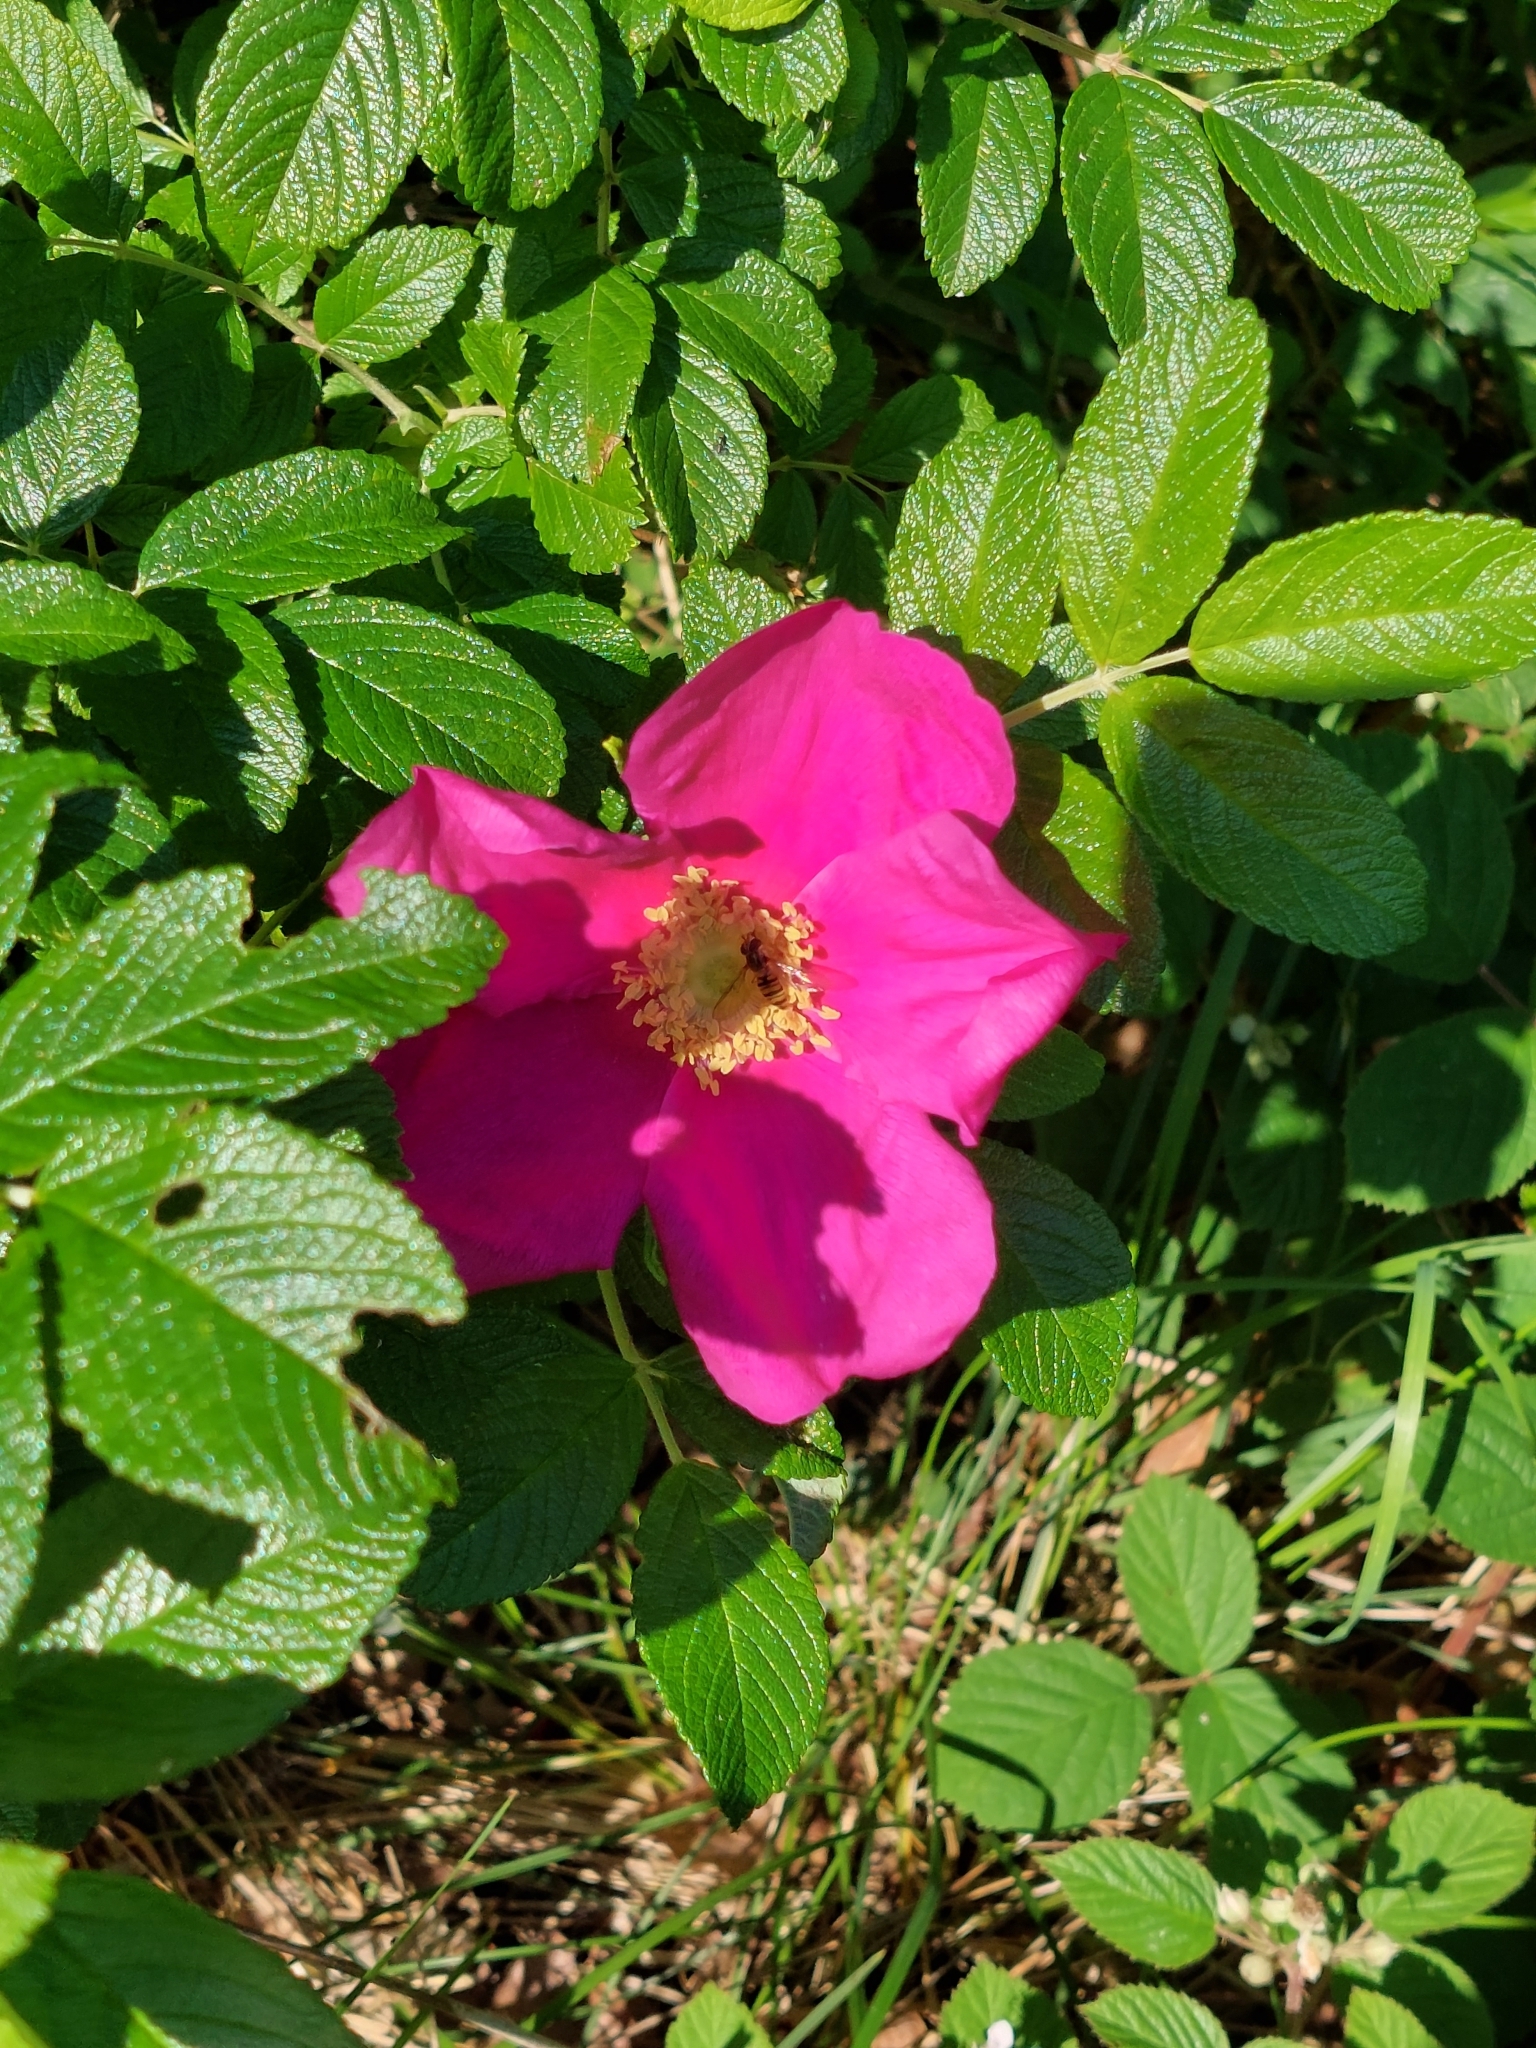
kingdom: Plantae
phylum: Tracheophyta
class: Magnoliopsida
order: Rosales
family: Rosaceae
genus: Rosa
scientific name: Rosa rugosa
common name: Japanese rose
